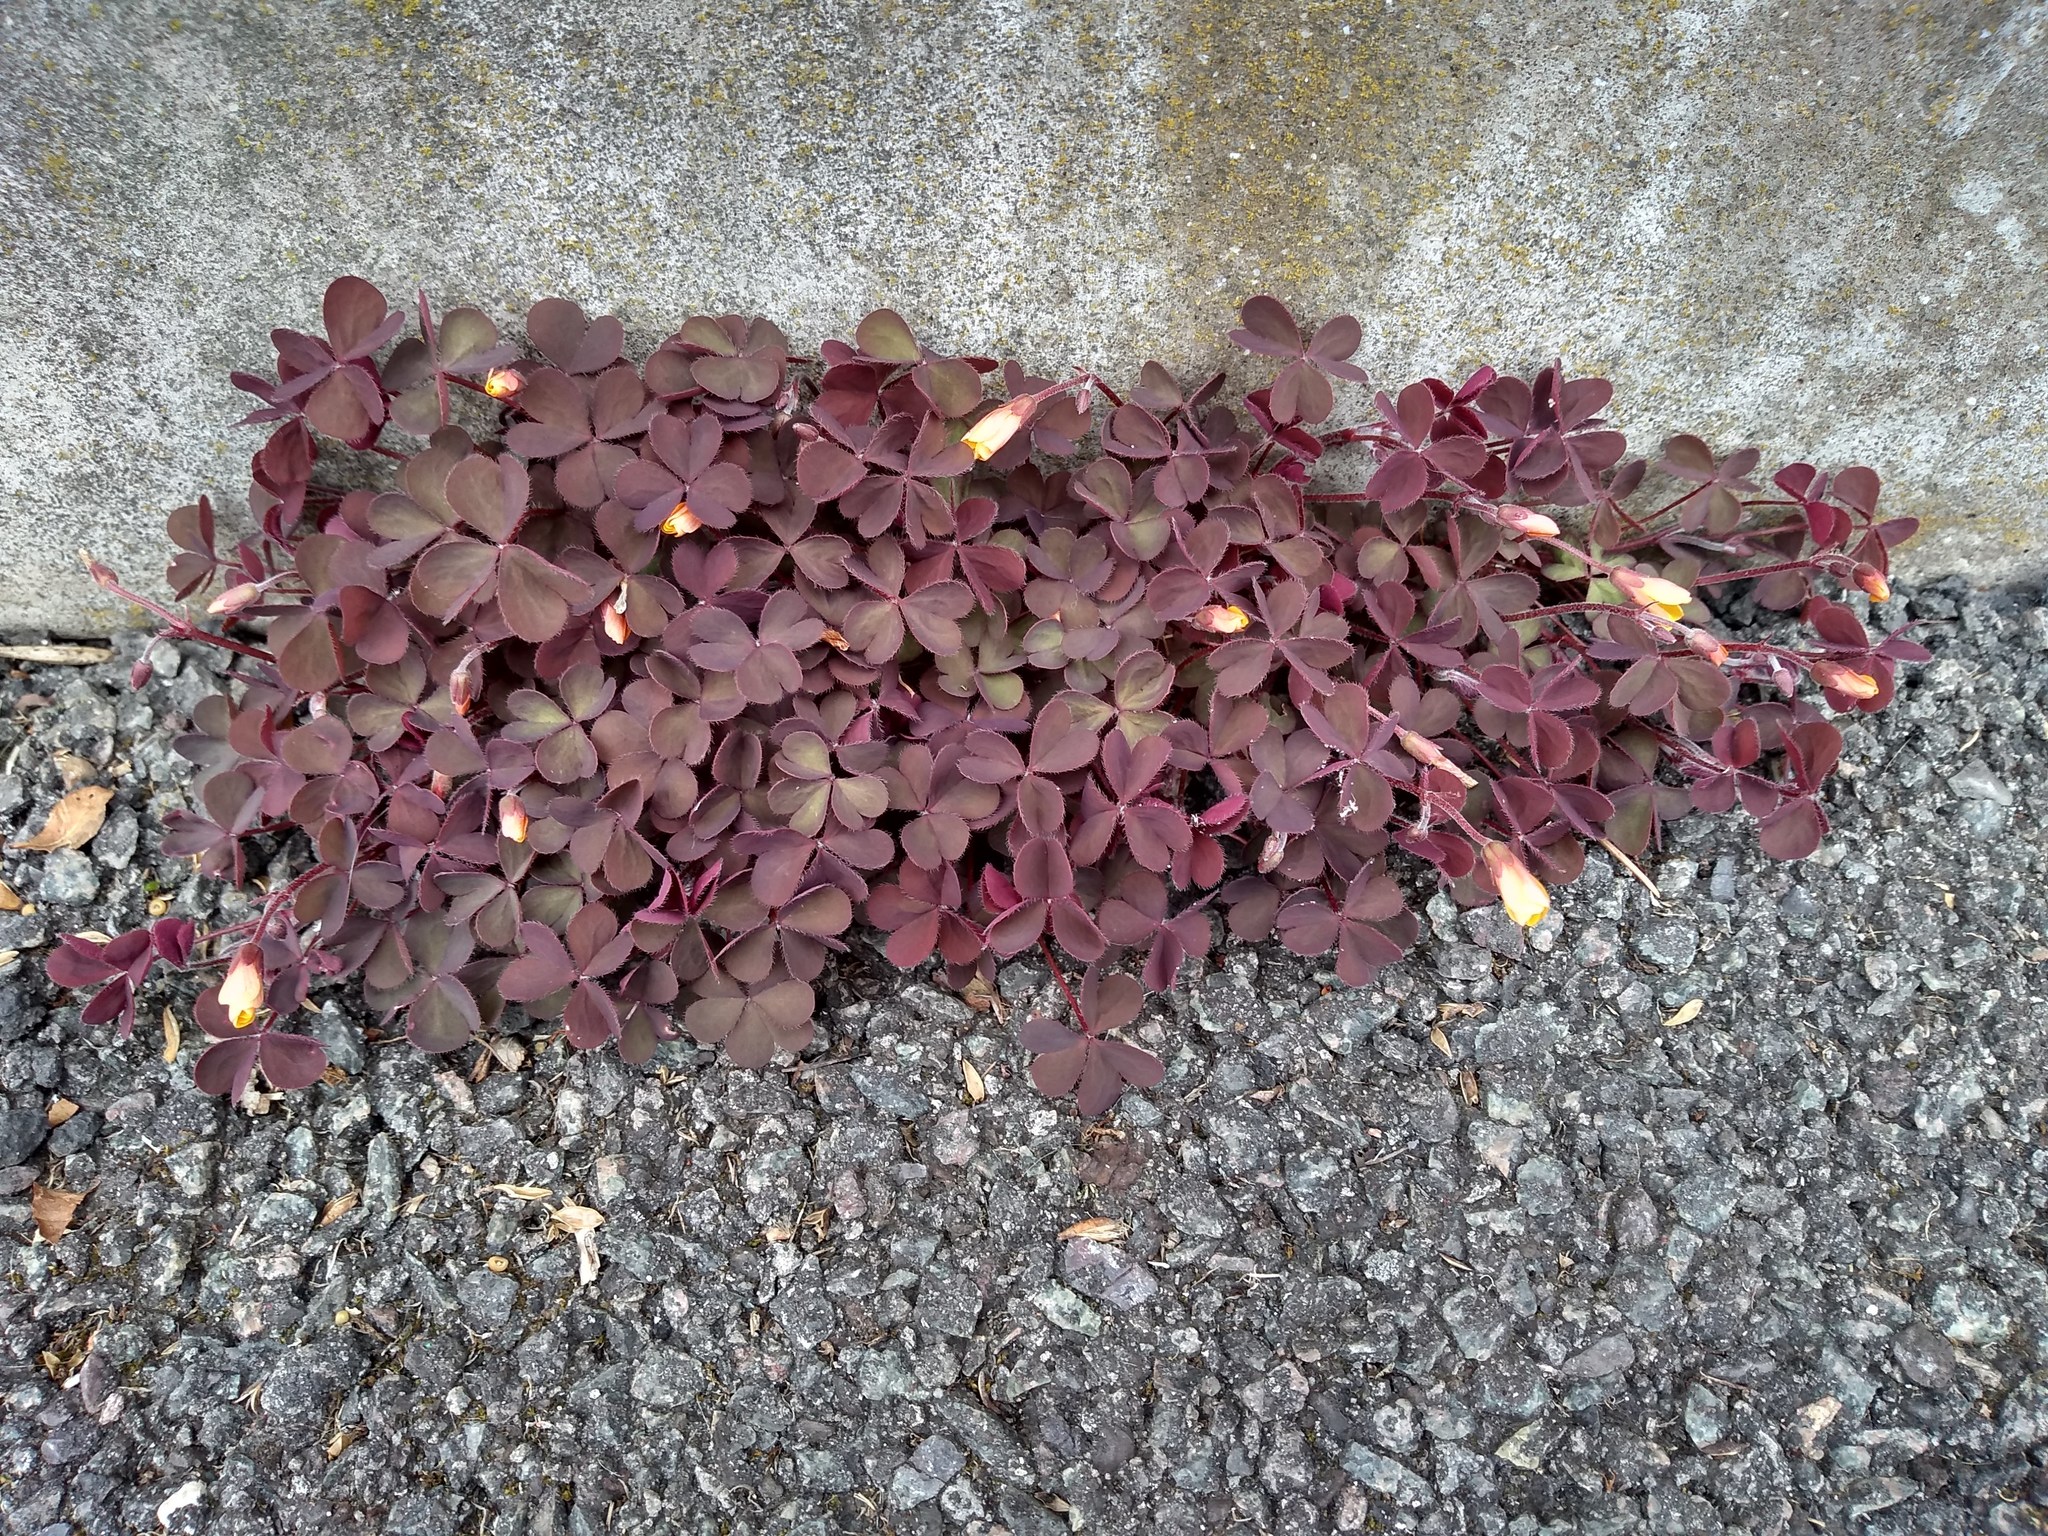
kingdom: Plantae
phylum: Tracheophyta
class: Magnoliopsida
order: Oxalidales
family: Oxalidaceae
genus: Oxalis
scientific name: Oxalis corniculata
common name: Procumbent yellow-sorrel
